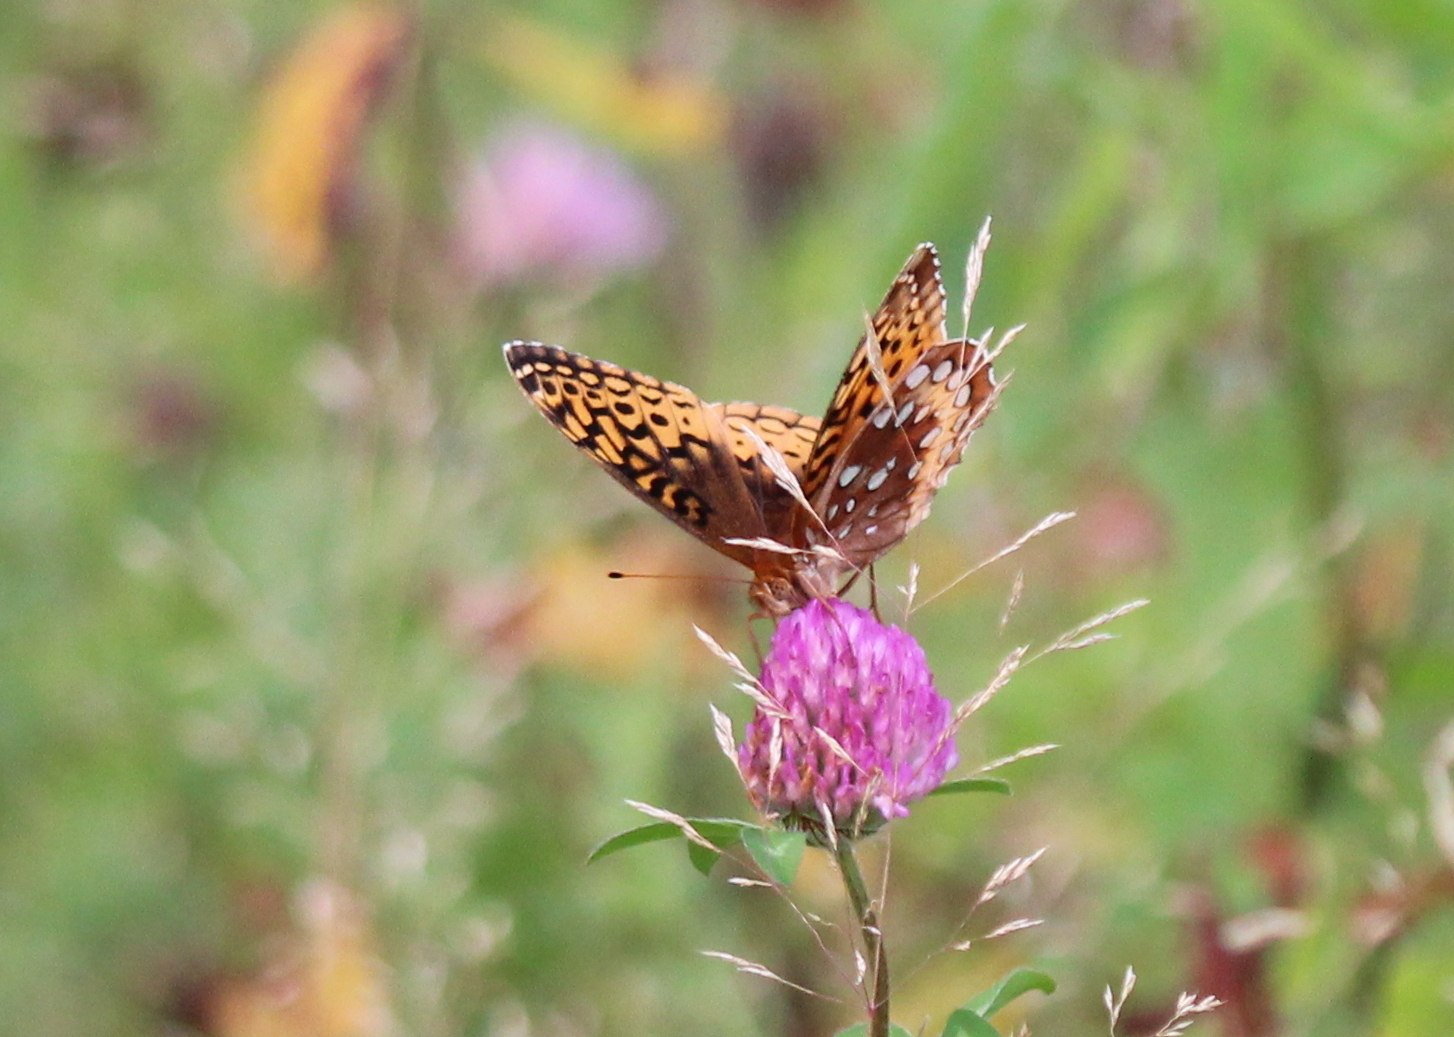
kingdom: Animalia
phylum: Arthropoda
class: Insecta
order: Lepidoptera
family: Nymphalidae
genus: Speyeria
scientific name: Speyeria cybele
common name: Great spangled fritillary
